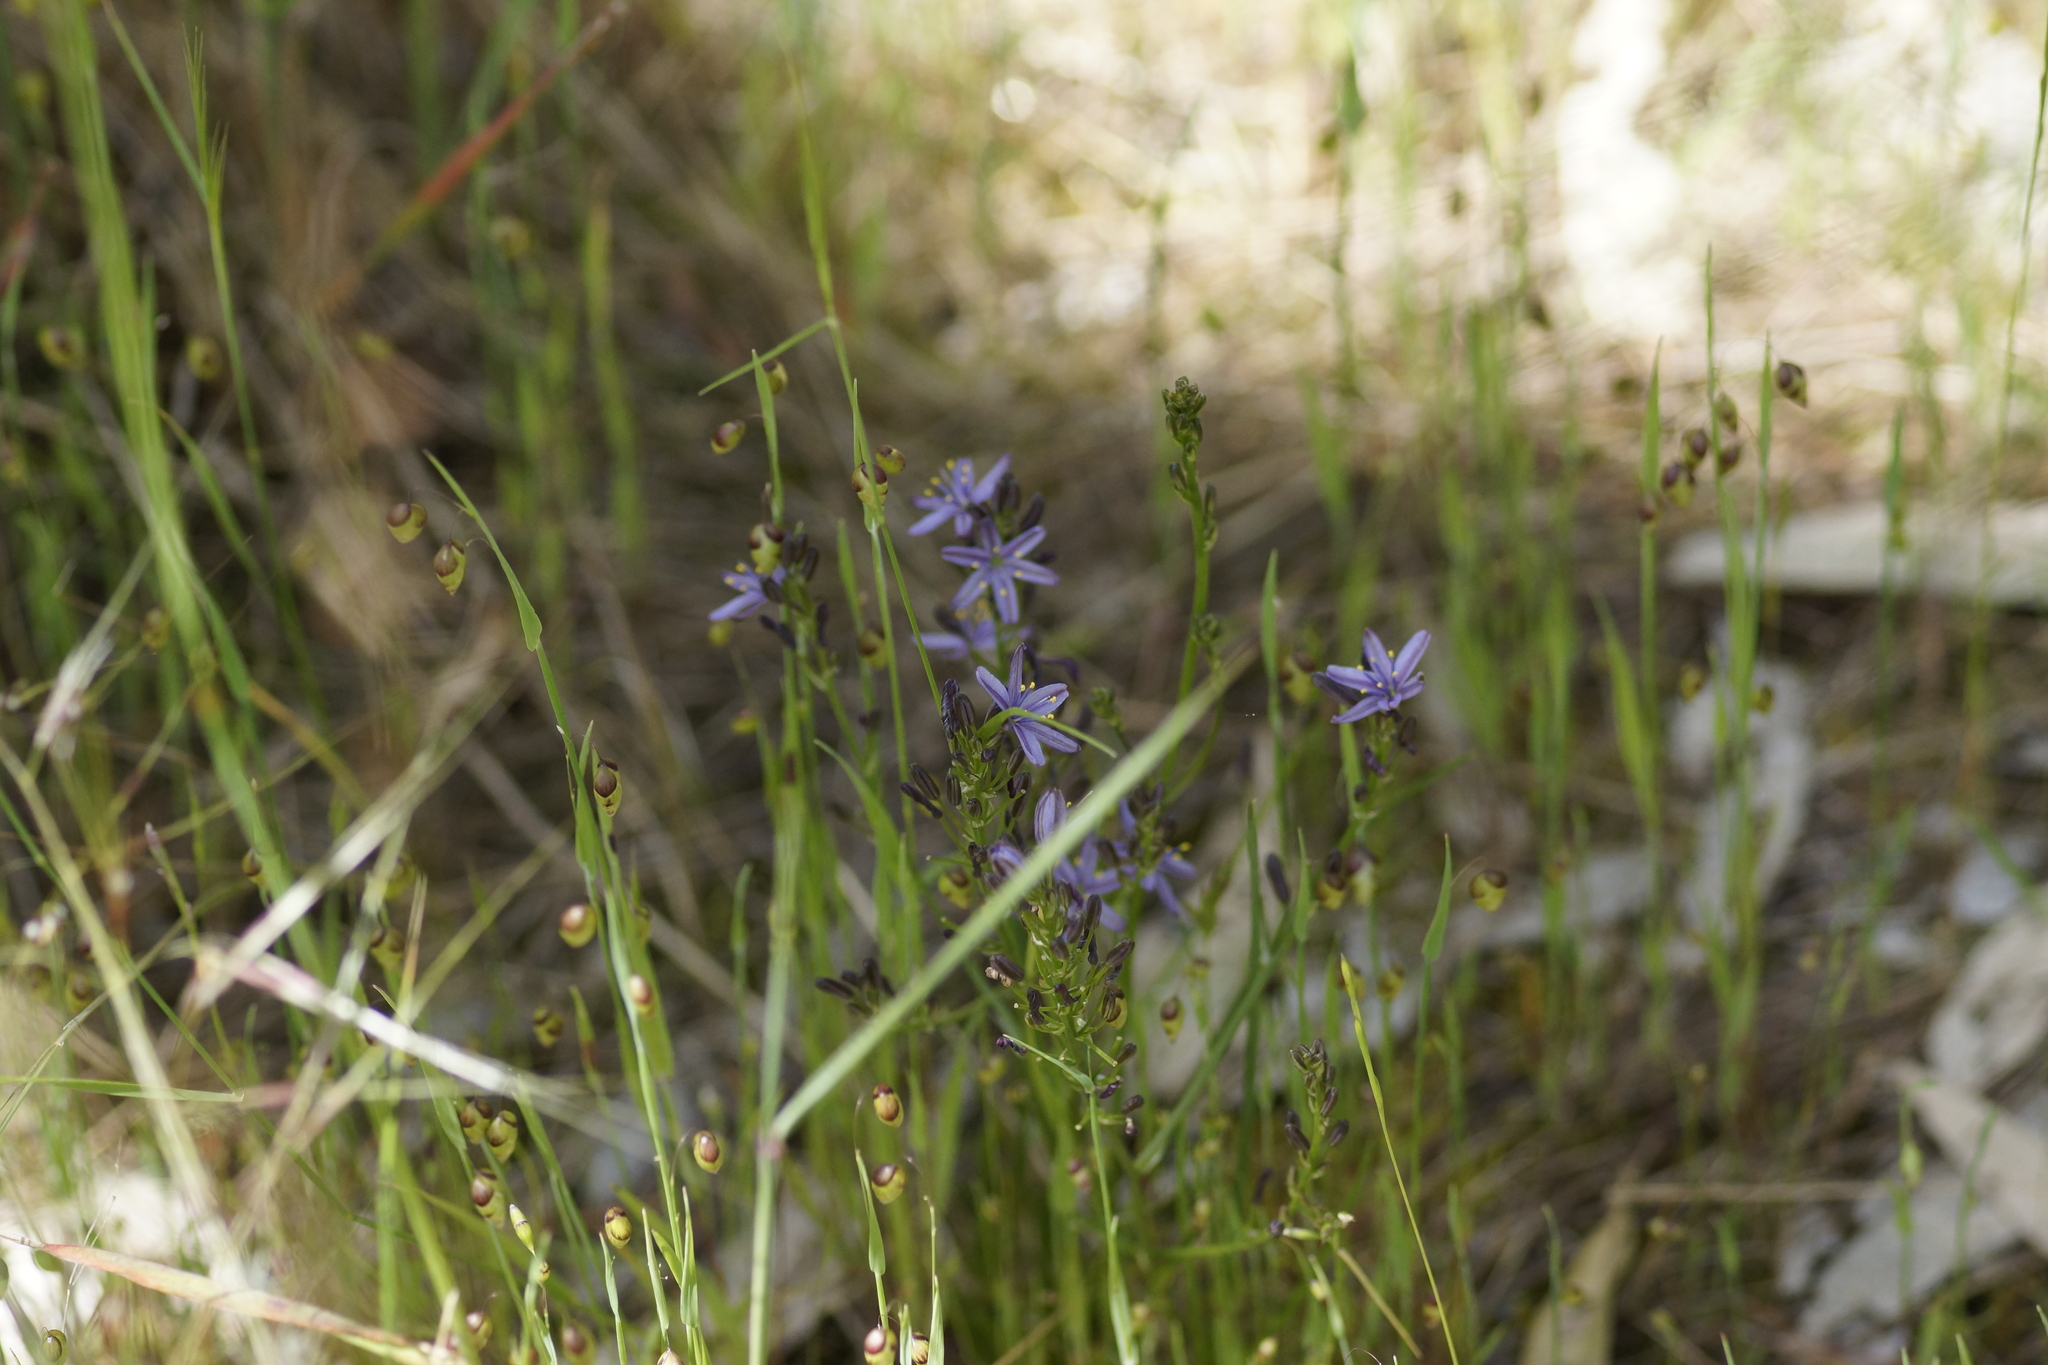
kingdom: Plantae
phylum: Tracheophyta
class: Liliopsida
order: Asparagales
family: Asphodelaceae
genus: Caesia
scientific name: Caesia calliantha
